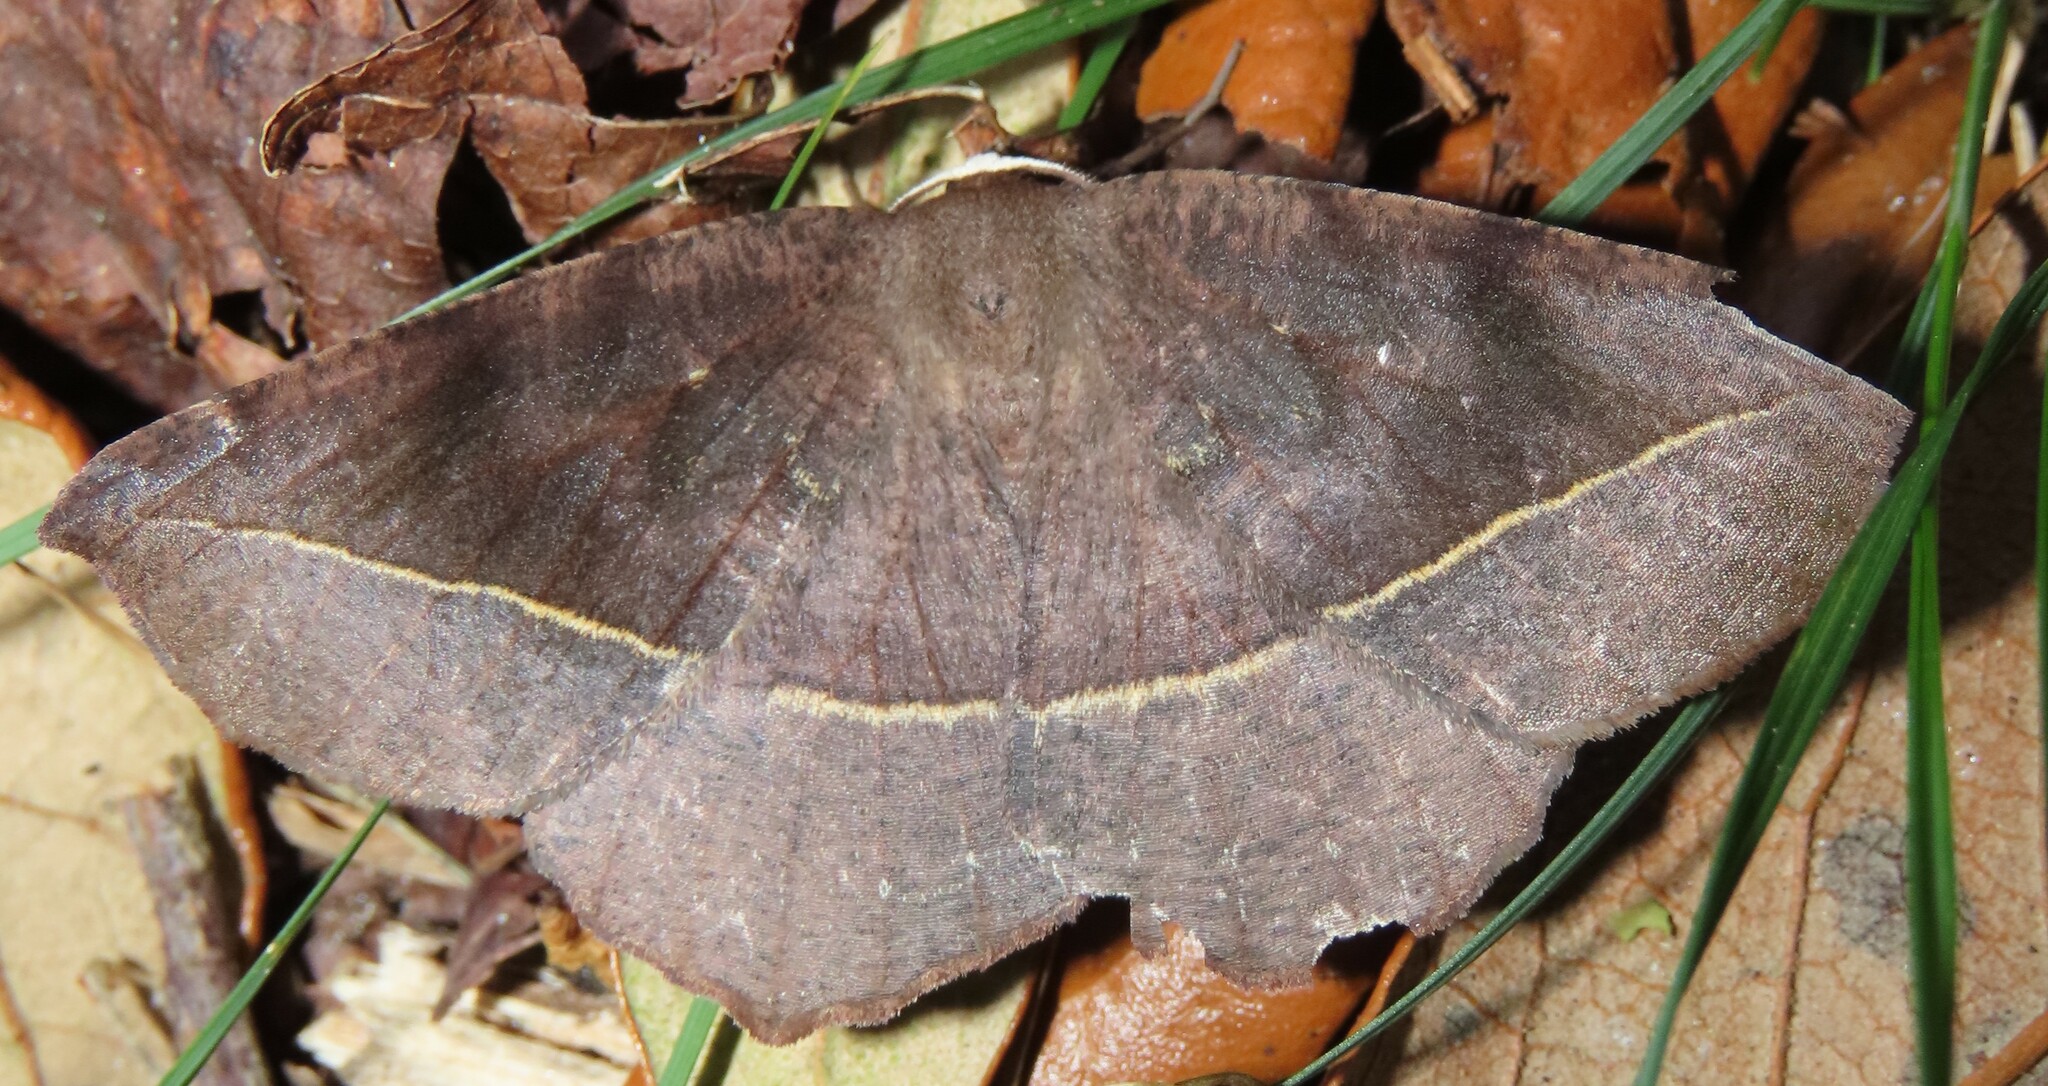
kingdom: Animalia
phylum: Arthropoda
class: Insecta
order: Lepidoptera
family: Geometridae
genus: Eutrapela
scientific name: Eutrapela clemataria
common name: Curved-toothed geometer
